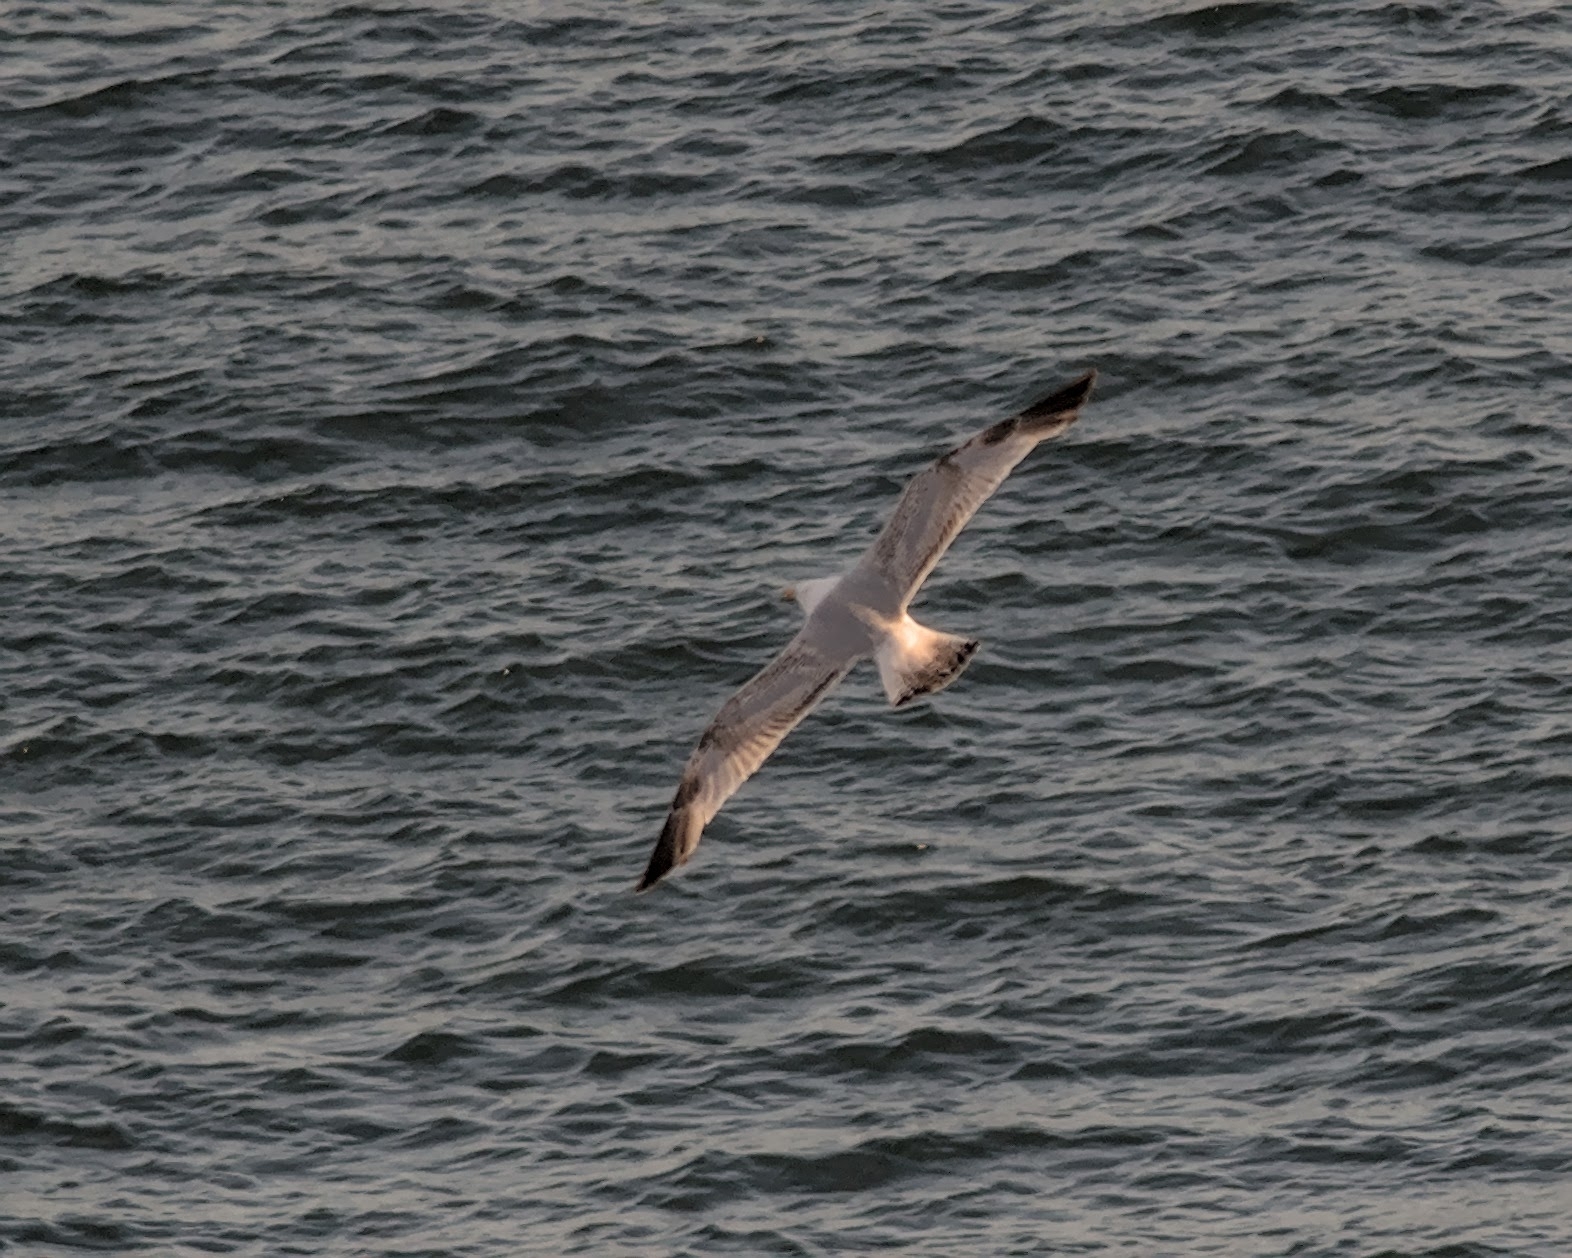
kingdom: Animalia
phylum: Chordata
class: Aves
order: Charadriiformes
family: Laridae
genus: Larus
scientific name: Larus argentatus
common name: Herring gull
